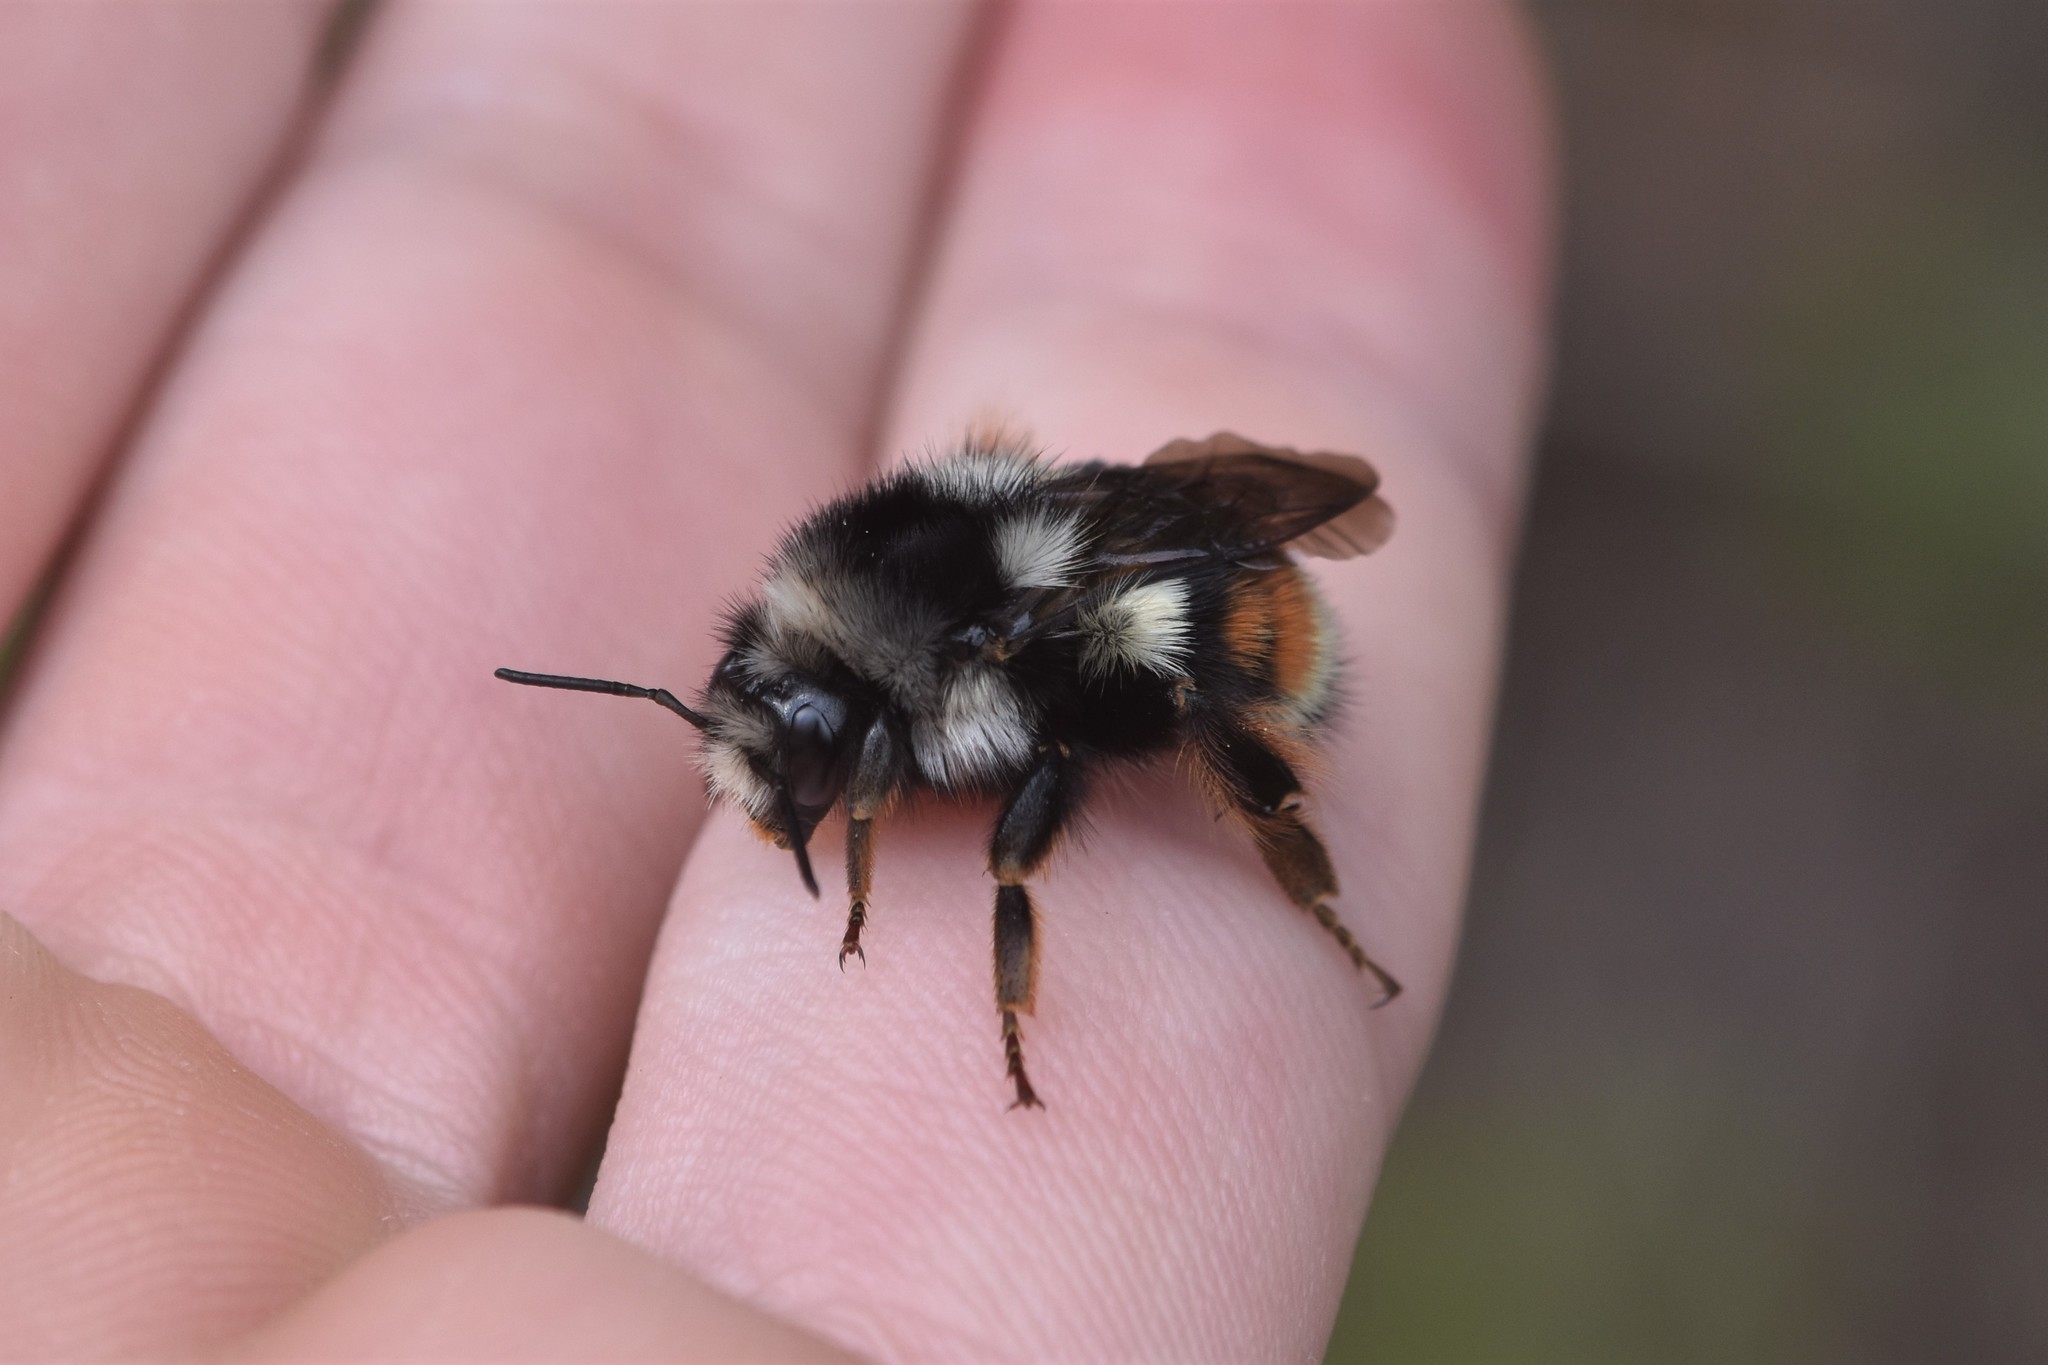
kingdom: Animalia
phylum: Arthropoda
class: Insecta
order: Hymenoptera
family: Apidae
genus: Bombus
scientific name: Bombus vancouverensis
